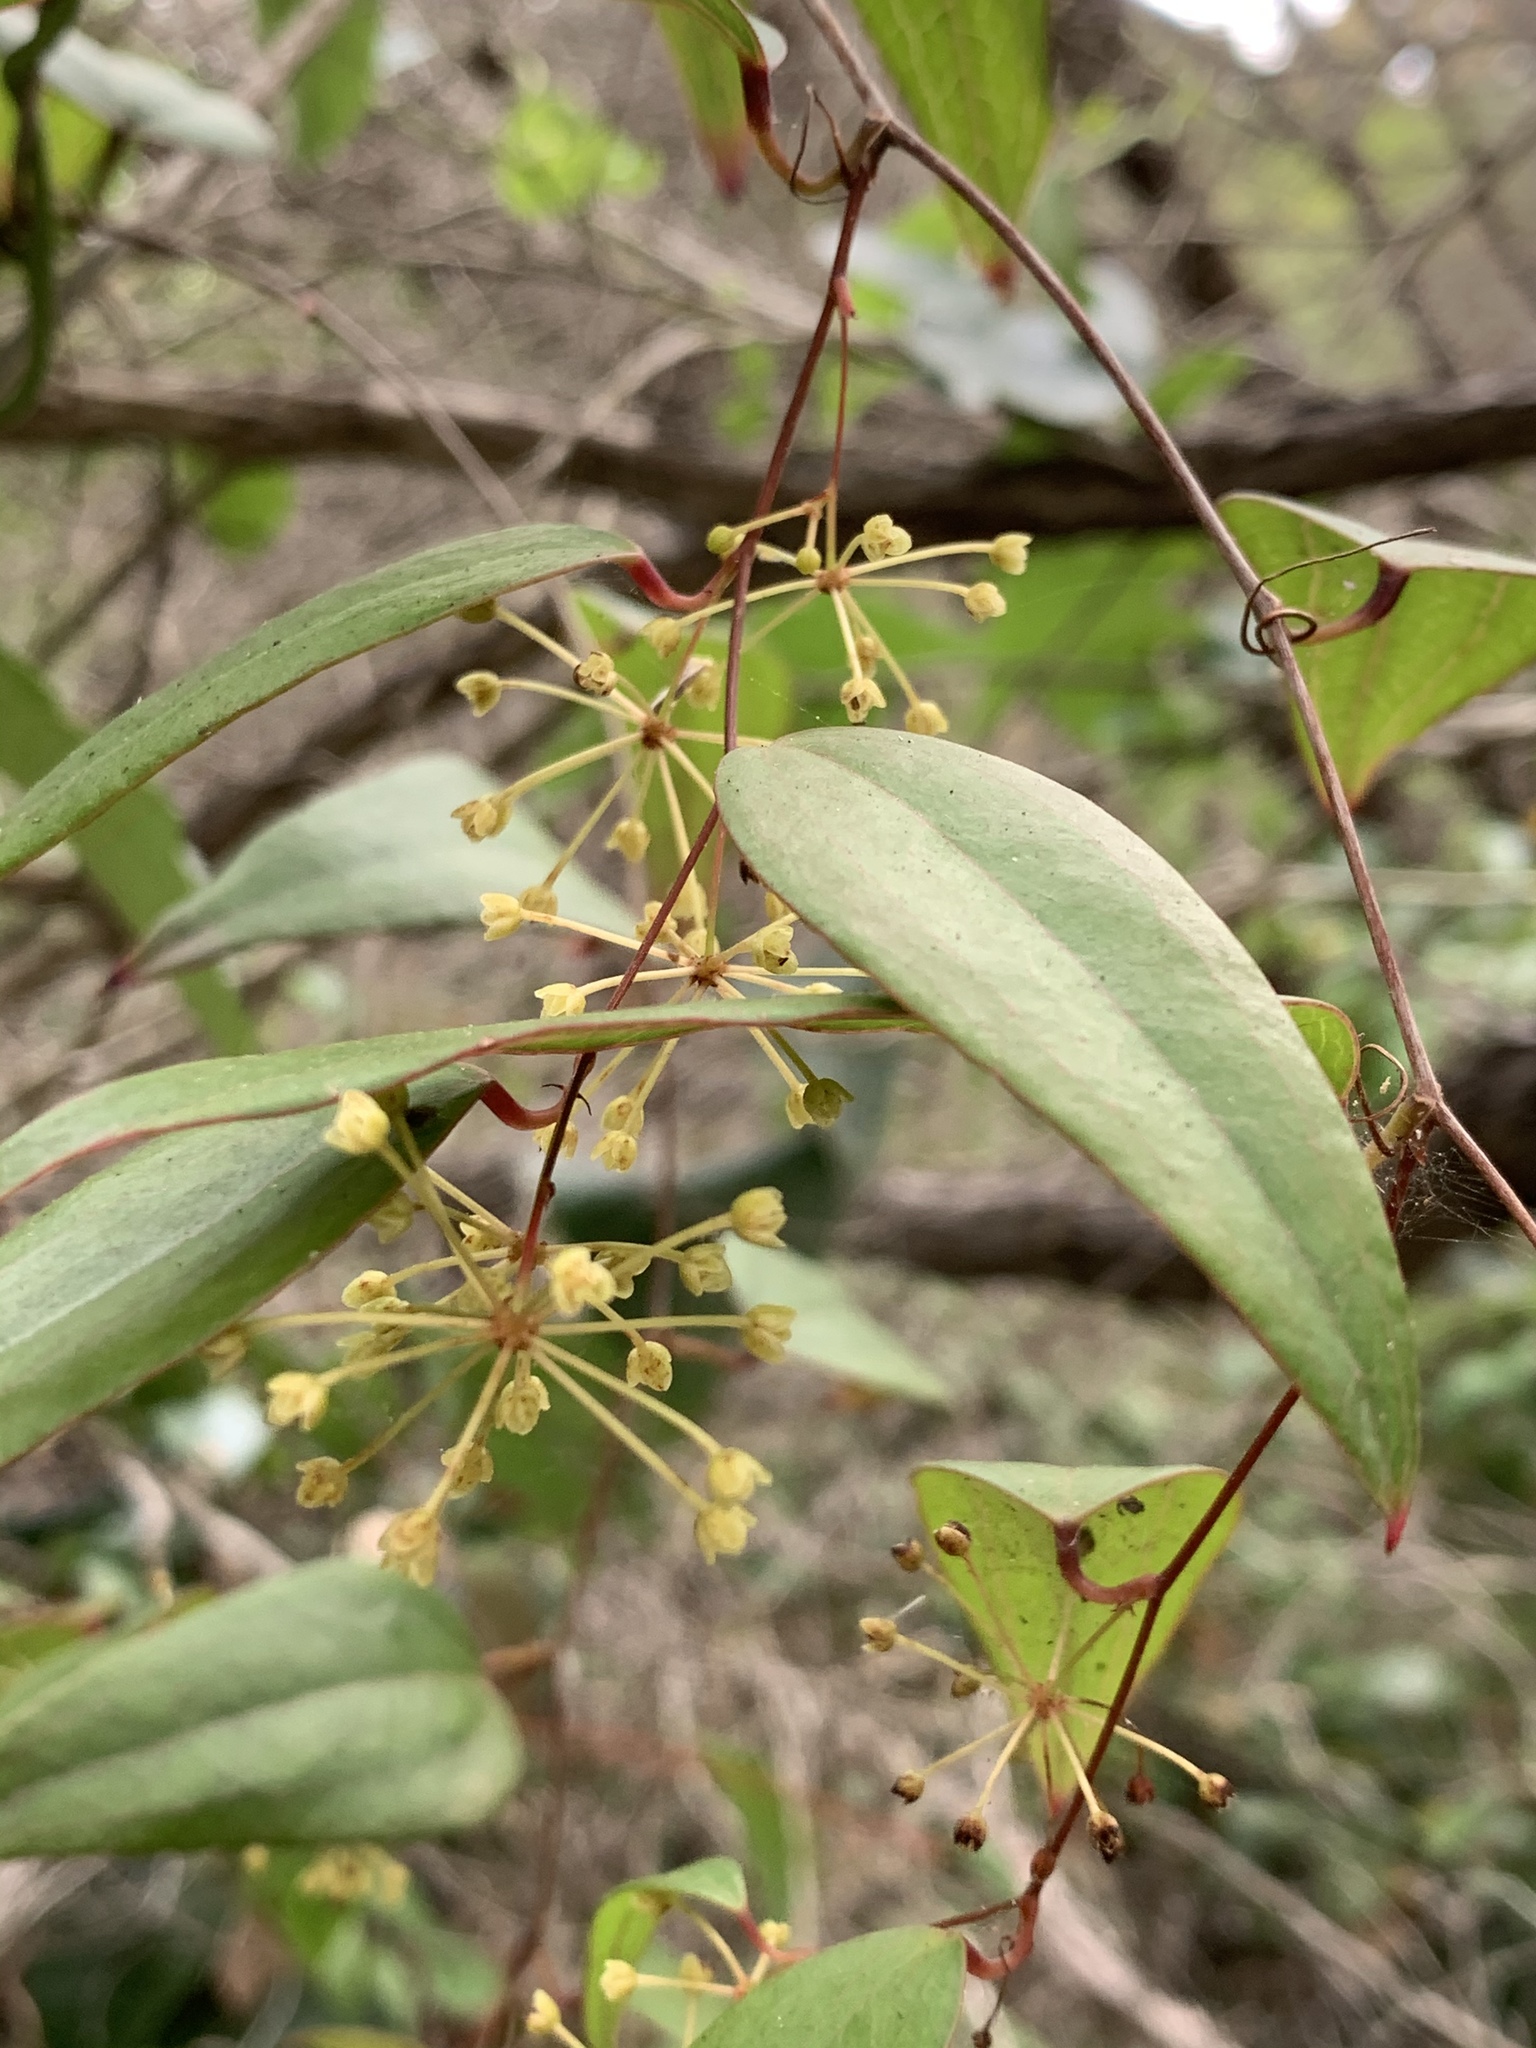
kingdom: Plantae
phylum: Tracheophyta
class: Liliopsida
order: Liliales
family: Smilacaceae
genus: Smilax
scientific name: Smilax glyciphylla
